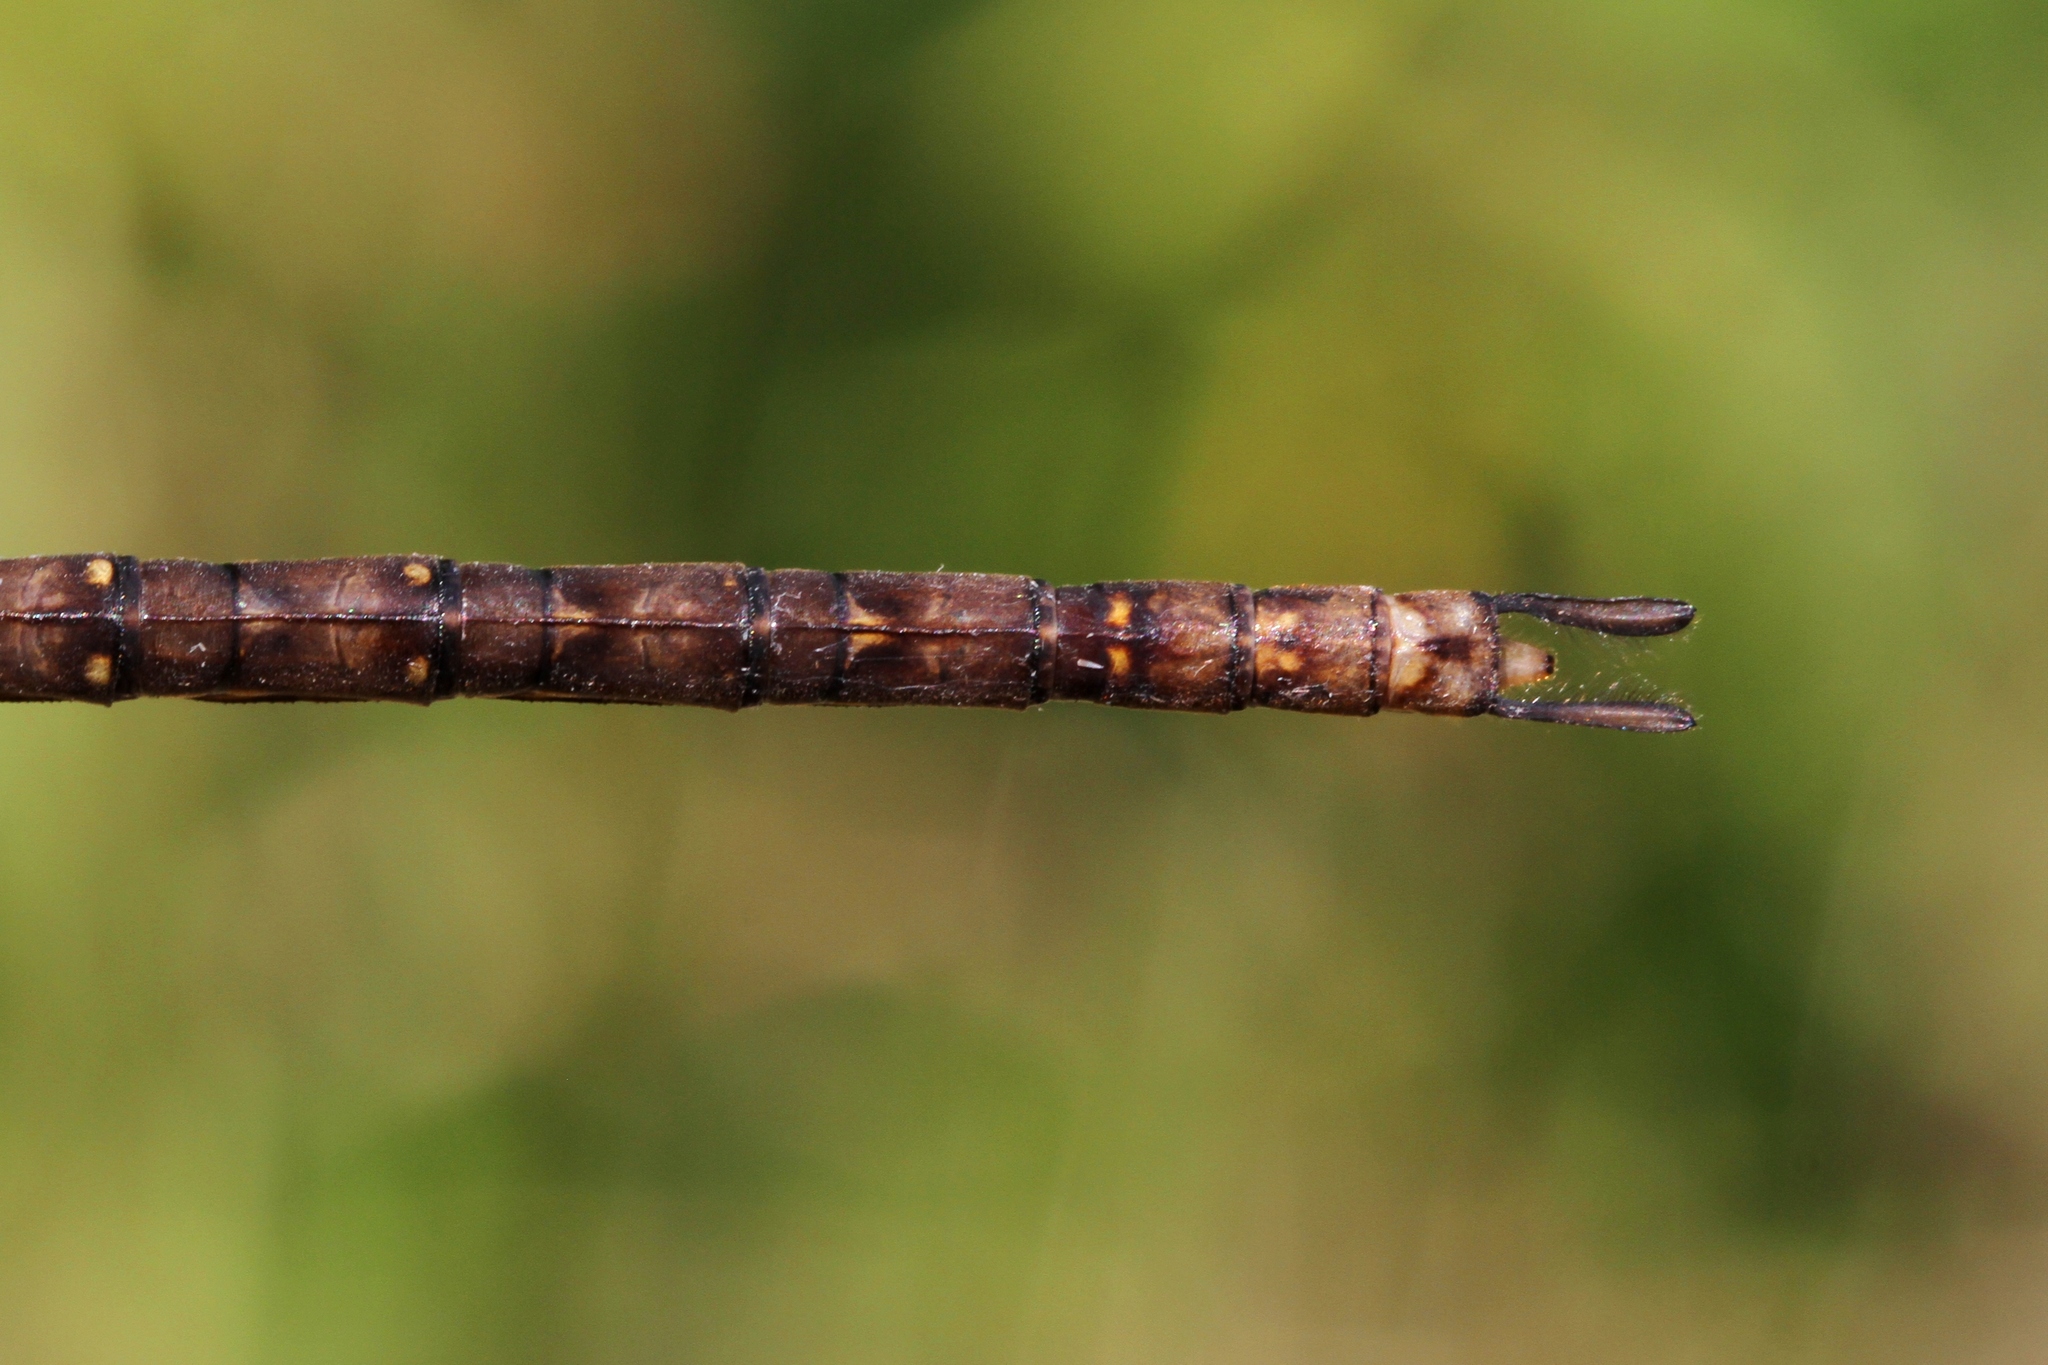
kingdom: Animalia
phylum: Arthropoda
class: Insecta
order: Odonata
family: Aeshnidae
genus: Boyeria
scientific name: Boyeria vinosa
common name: Fawn darner
